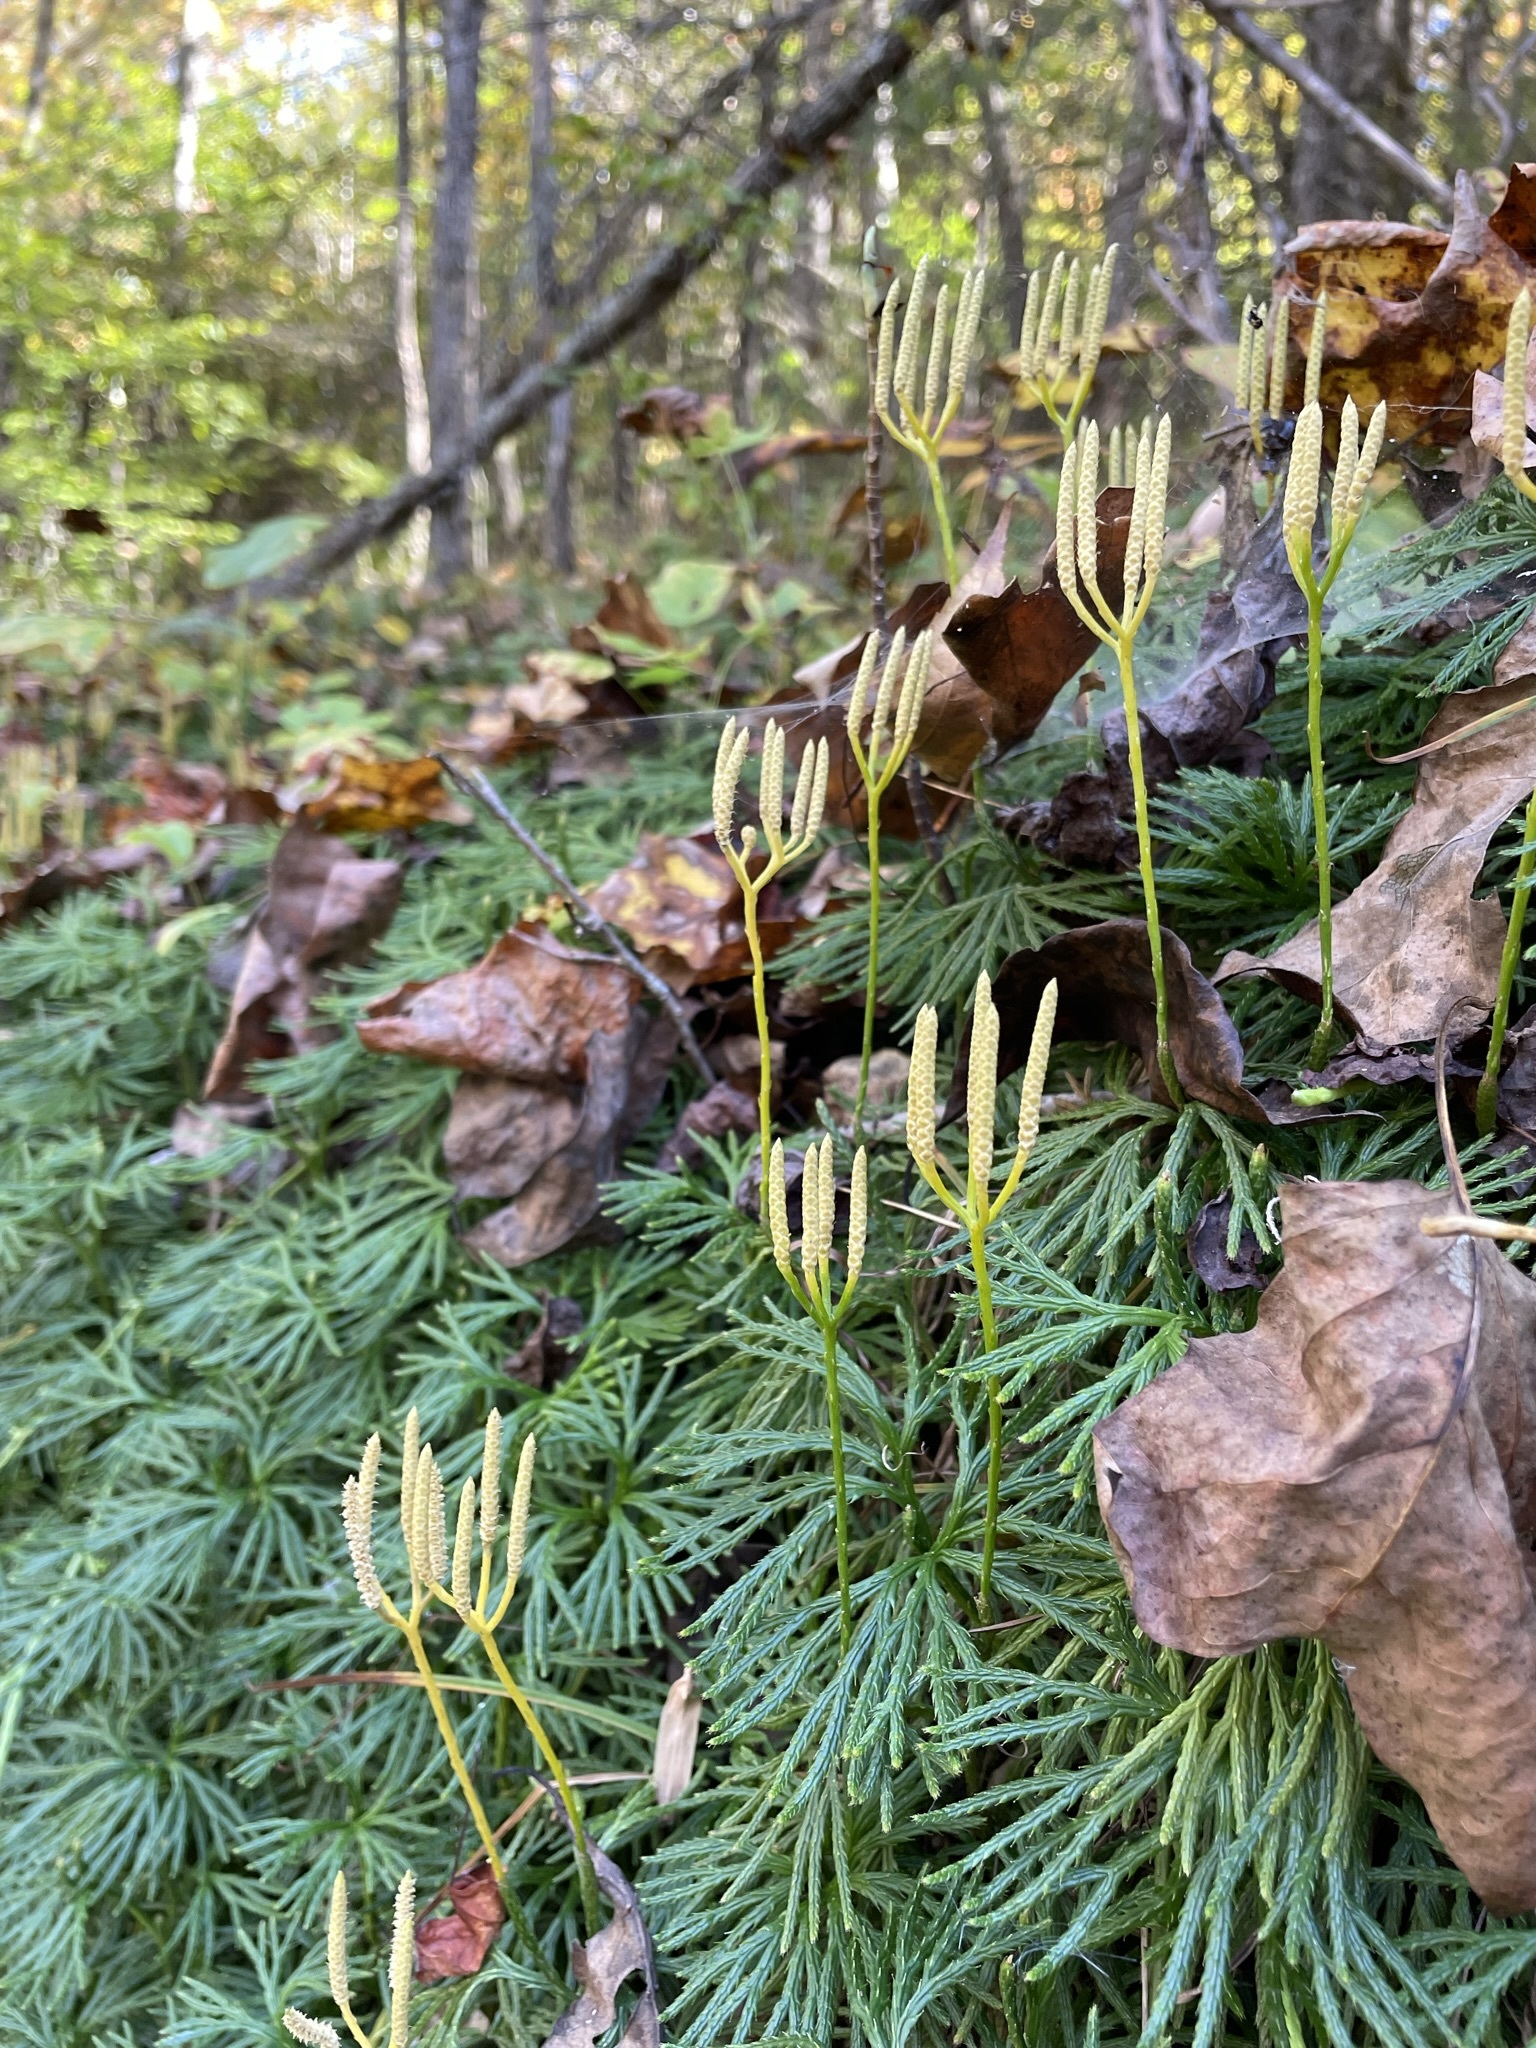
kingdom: Plantae
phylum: Tracheophyta
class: Lycopodiopsida
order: Lycopodiales
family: Lycopodiaceae
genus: Diphasiastrum
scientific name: Diphasiastrum digitatum
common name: Southern running-pine
